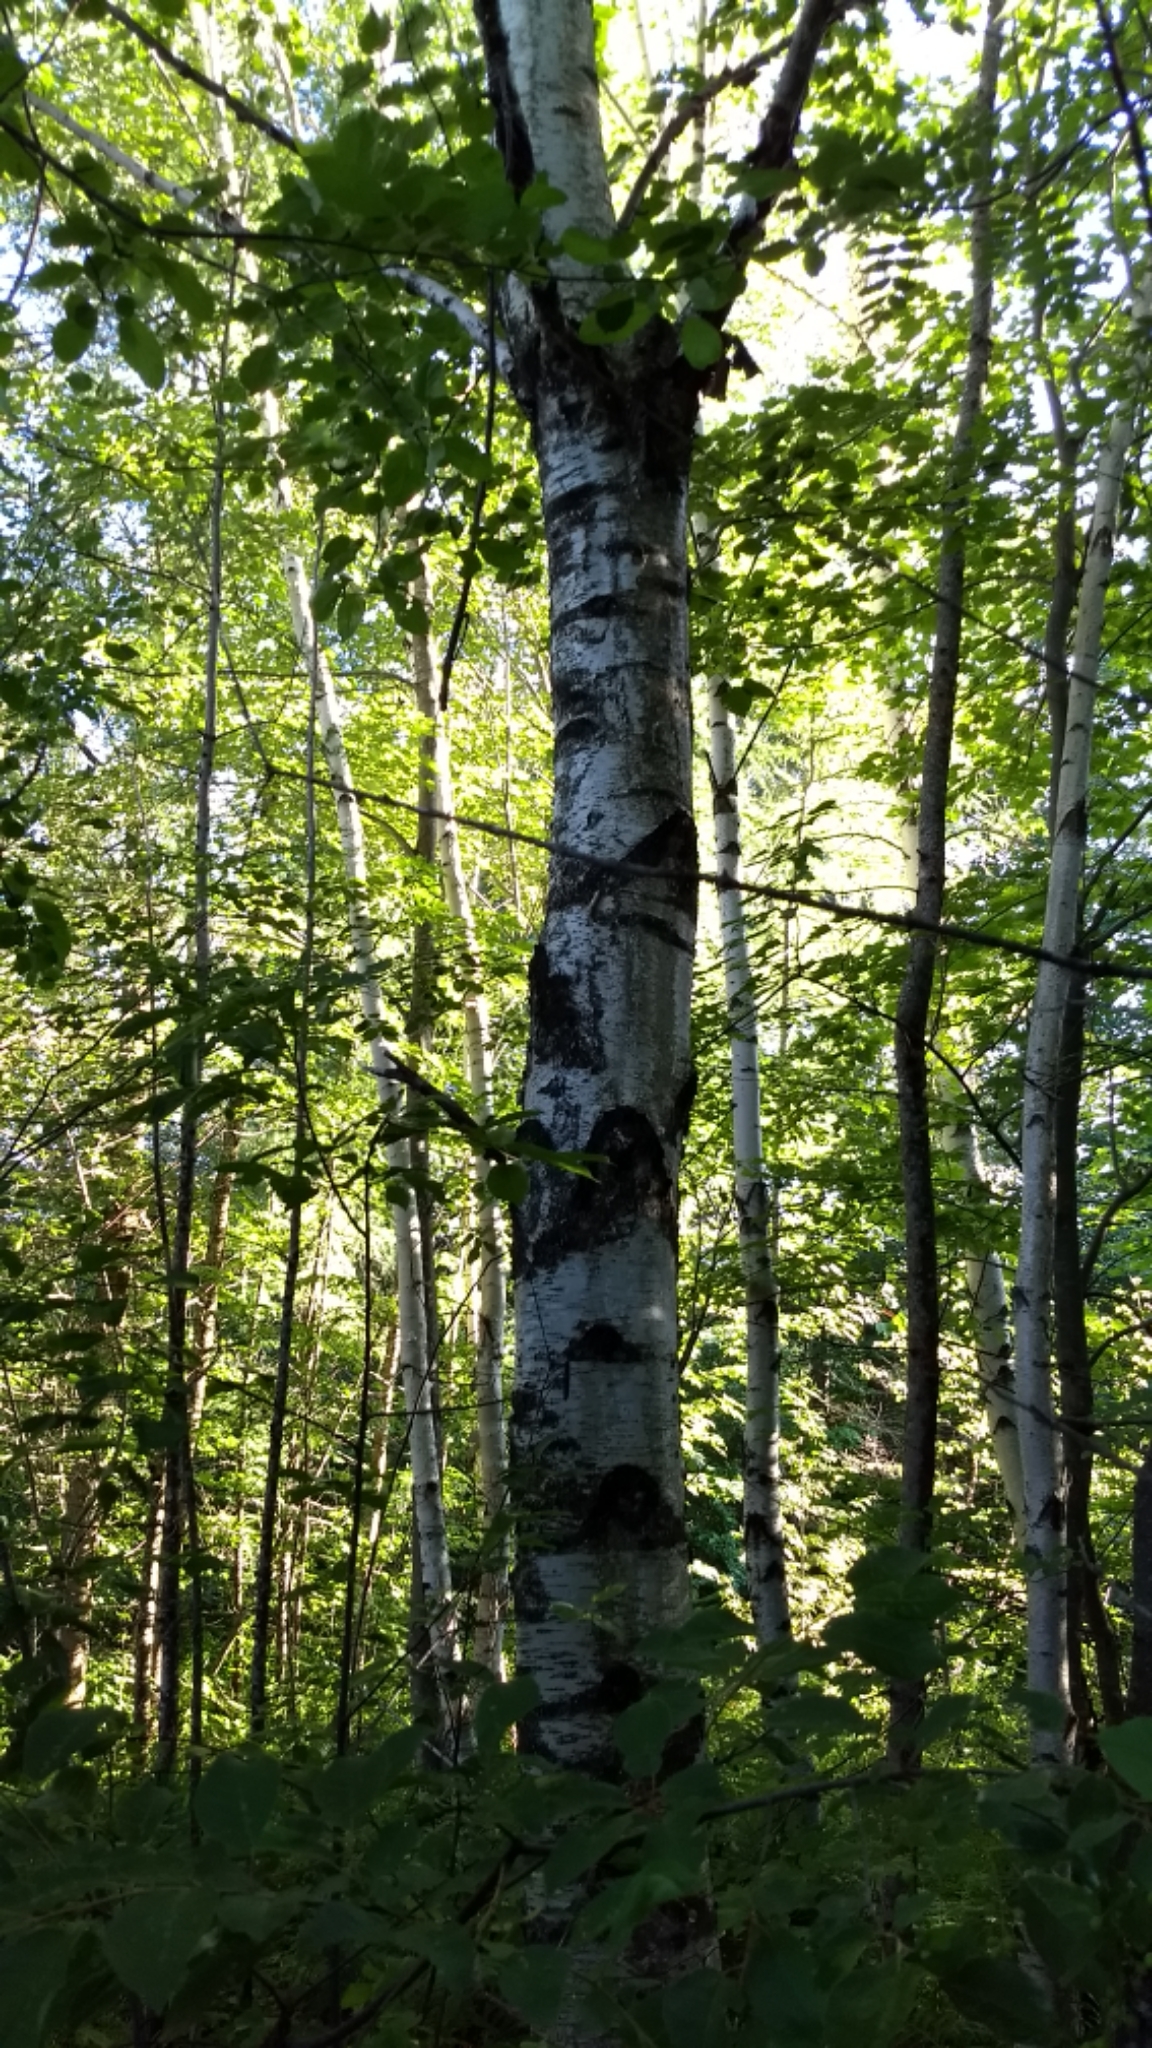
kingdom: Plantae
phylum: Tracheophyta
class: Magnoliopsida
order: Fagales
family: Betulaceae
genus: Betula
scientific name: Betula populifolia
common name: Fire birch
